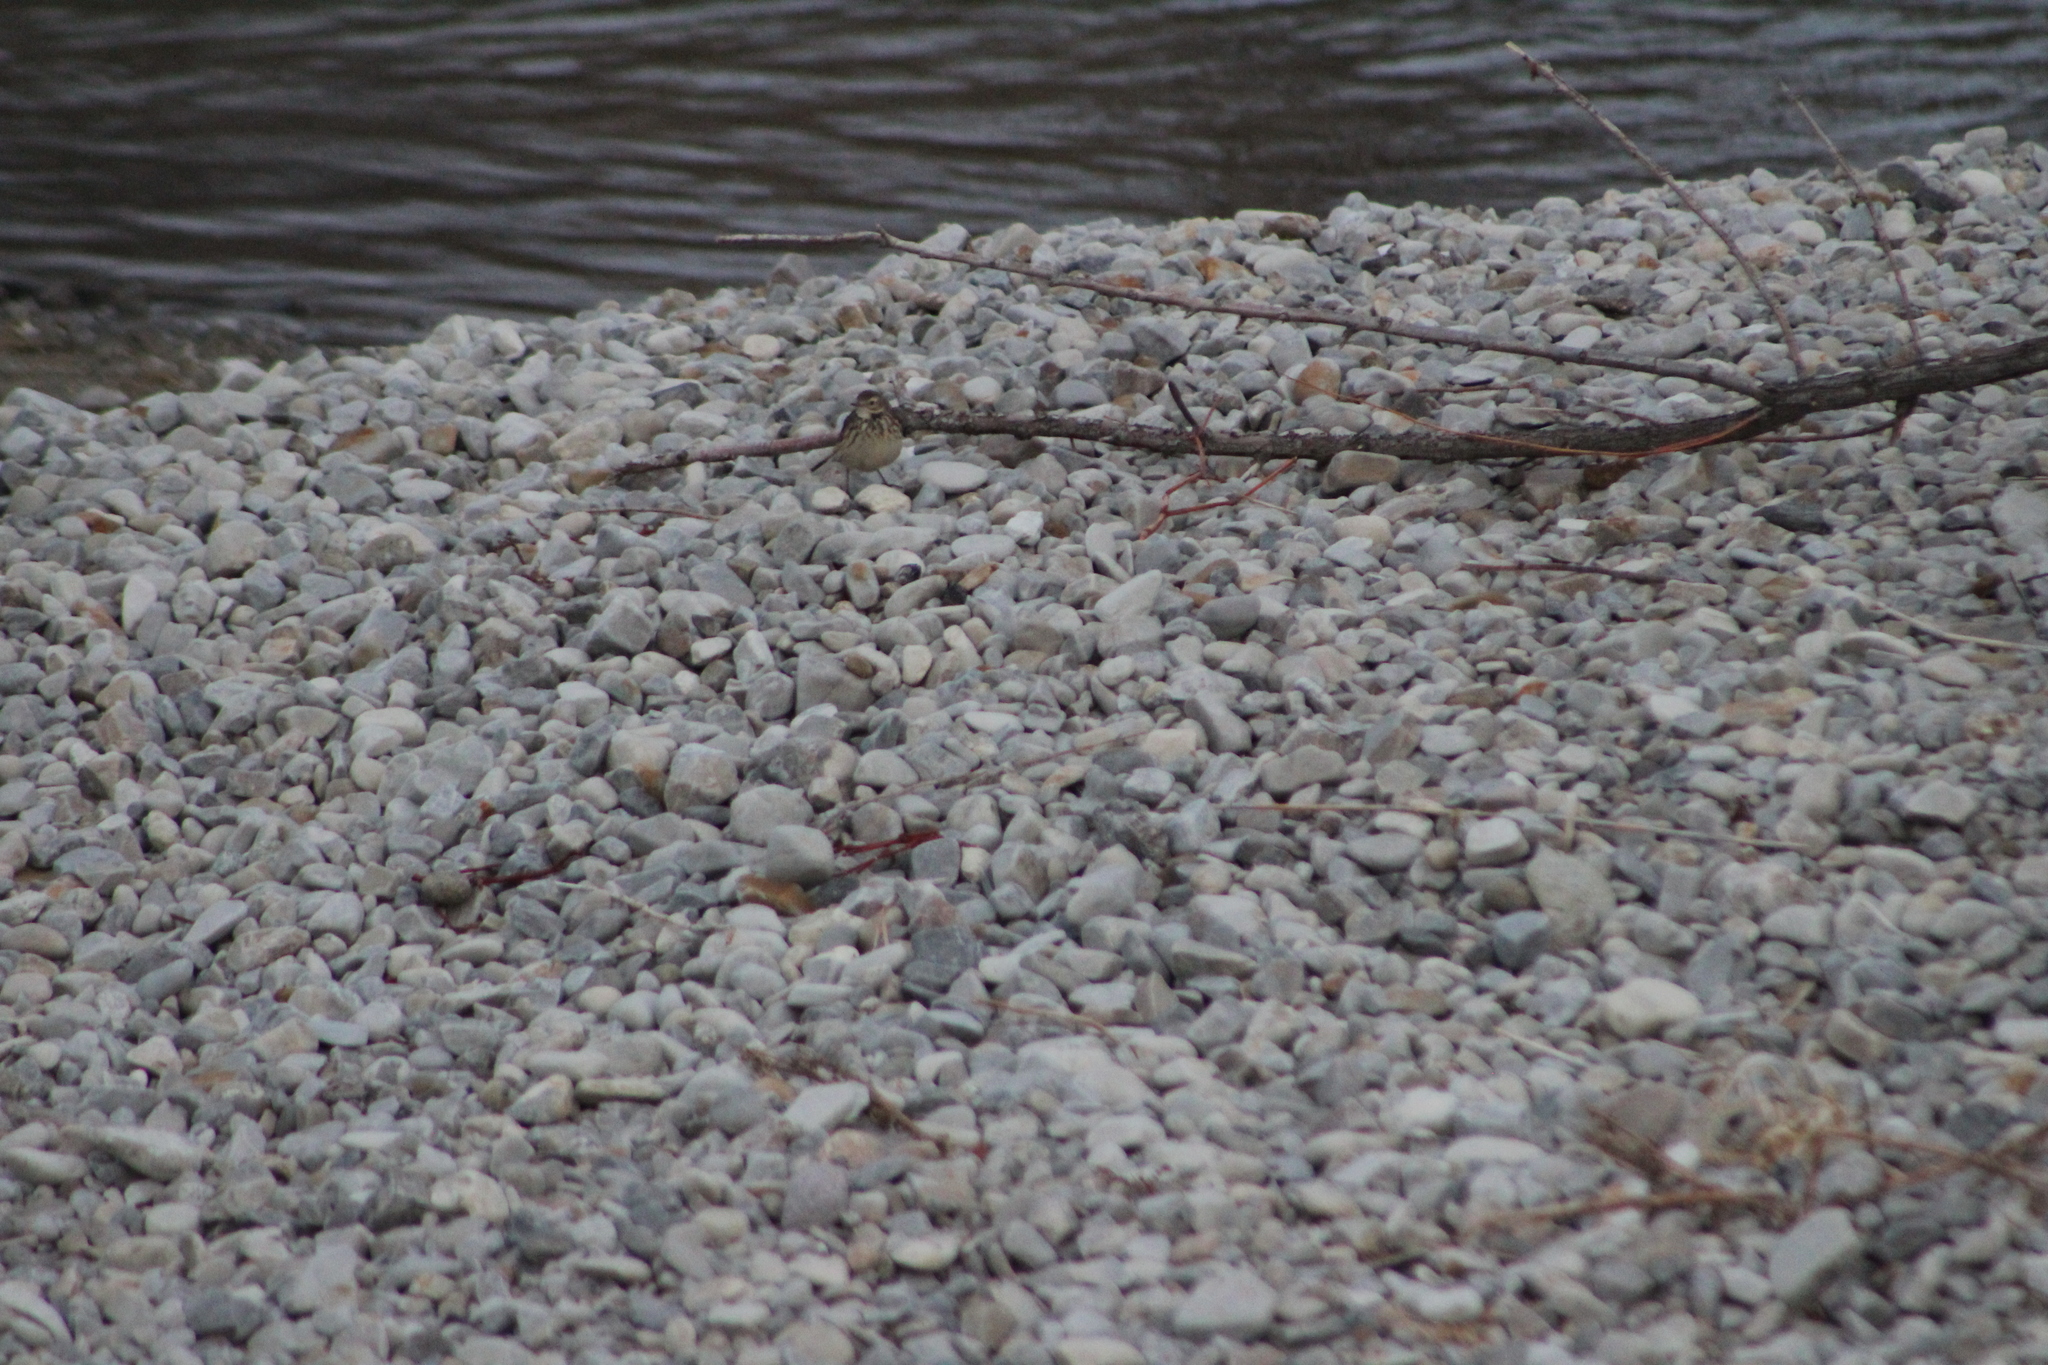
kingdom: Animalia
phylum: Chordata
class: Aves
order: Passeriformes
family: Motacillidae
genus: Anthus
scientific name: Anthus rubescens
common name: Buff-bellied pipit
